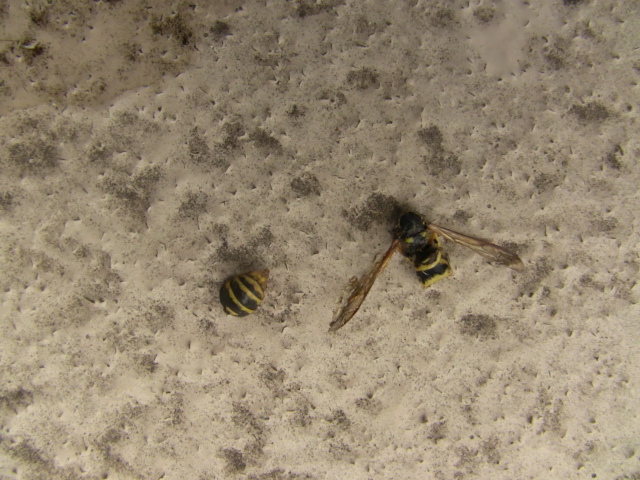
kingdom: Animalia
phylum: Arthropoda
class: Insecta
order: Hymenoptera
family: Vespidae
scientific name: Vespidae
